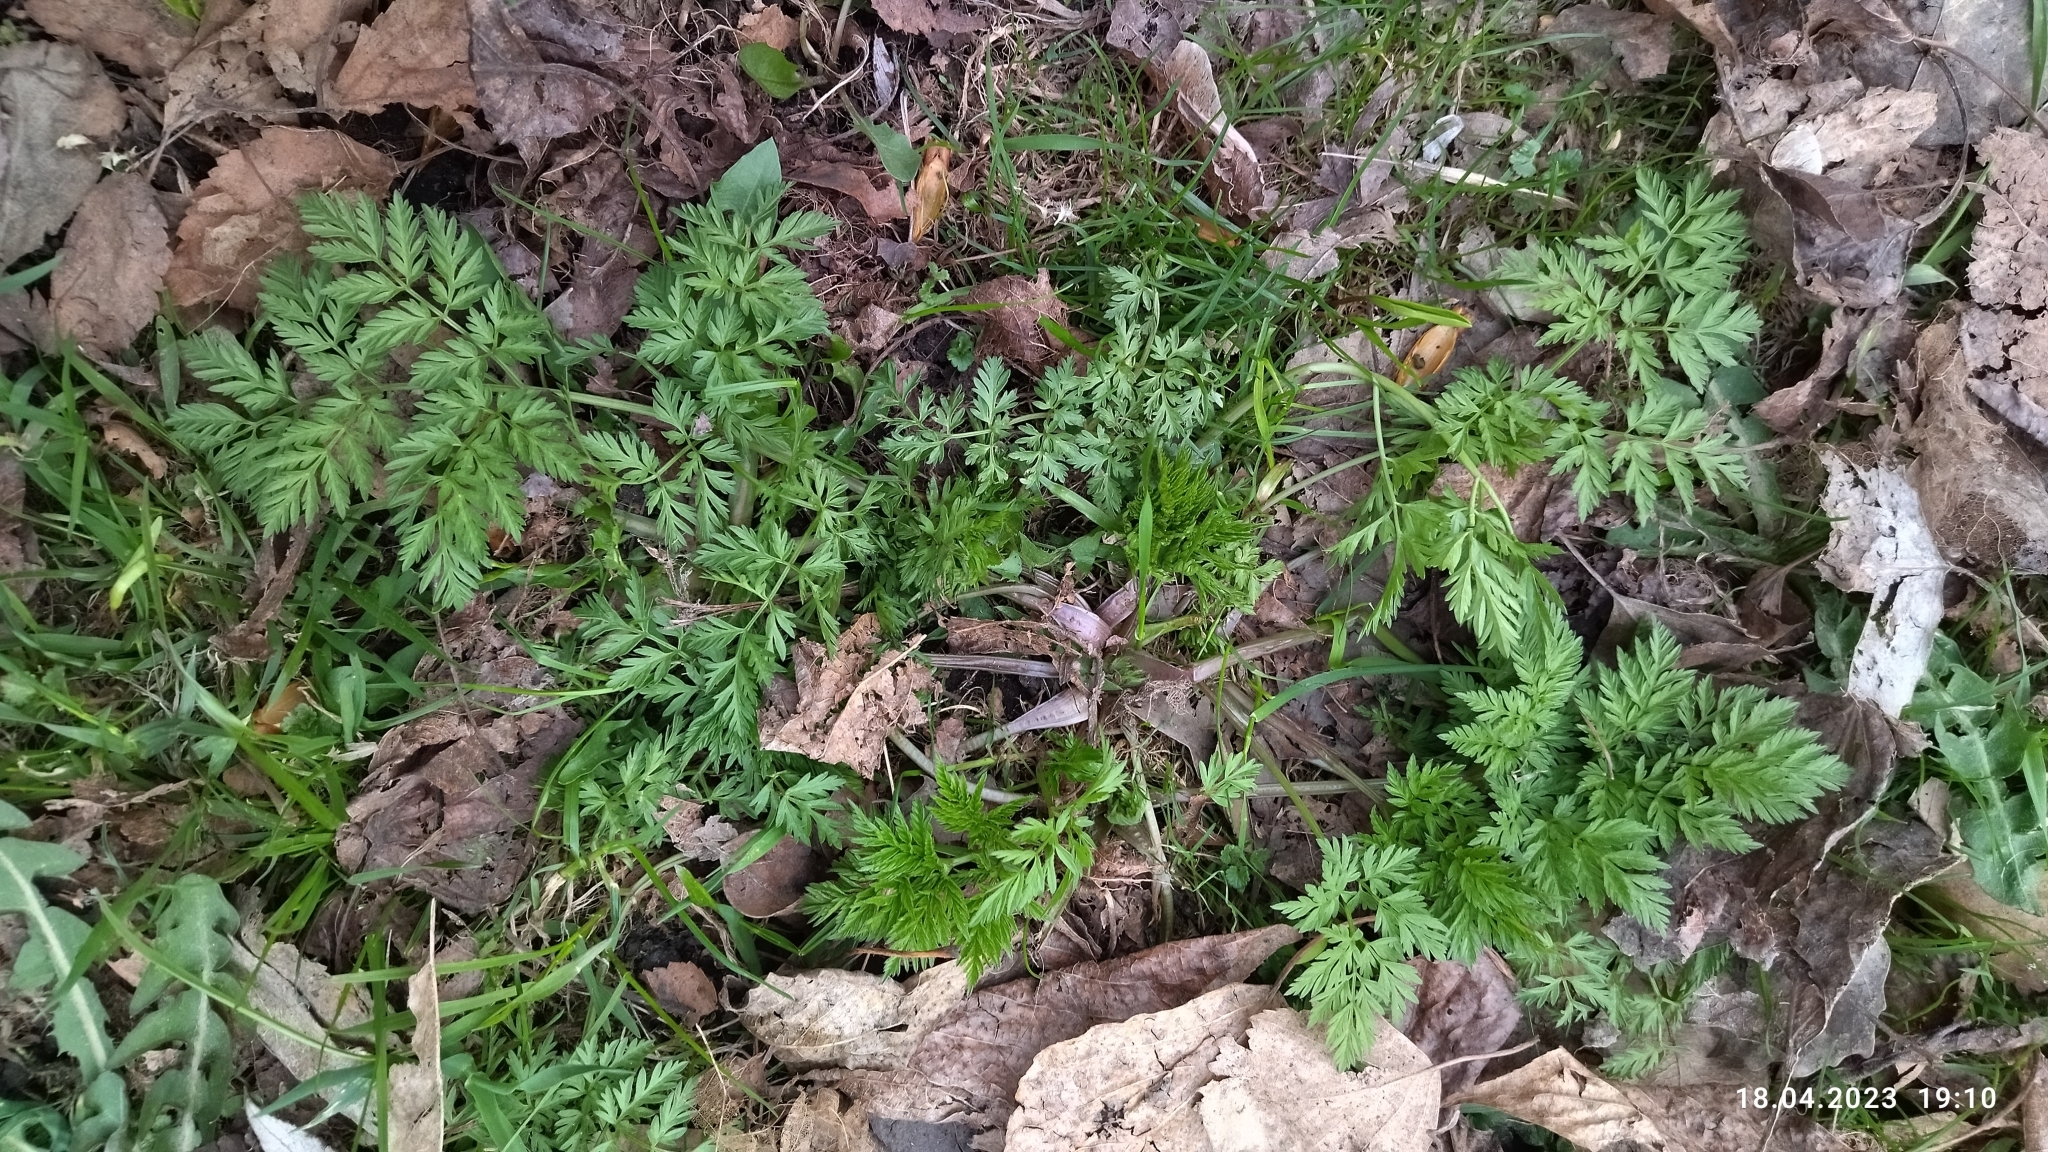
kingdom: Plantae
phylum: Tracheophyta
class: Magnoliopsida
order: Apiales
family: Apiaceae
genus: Anthriscus
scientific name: Anthriscus sylvestris
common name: Cow parsley
